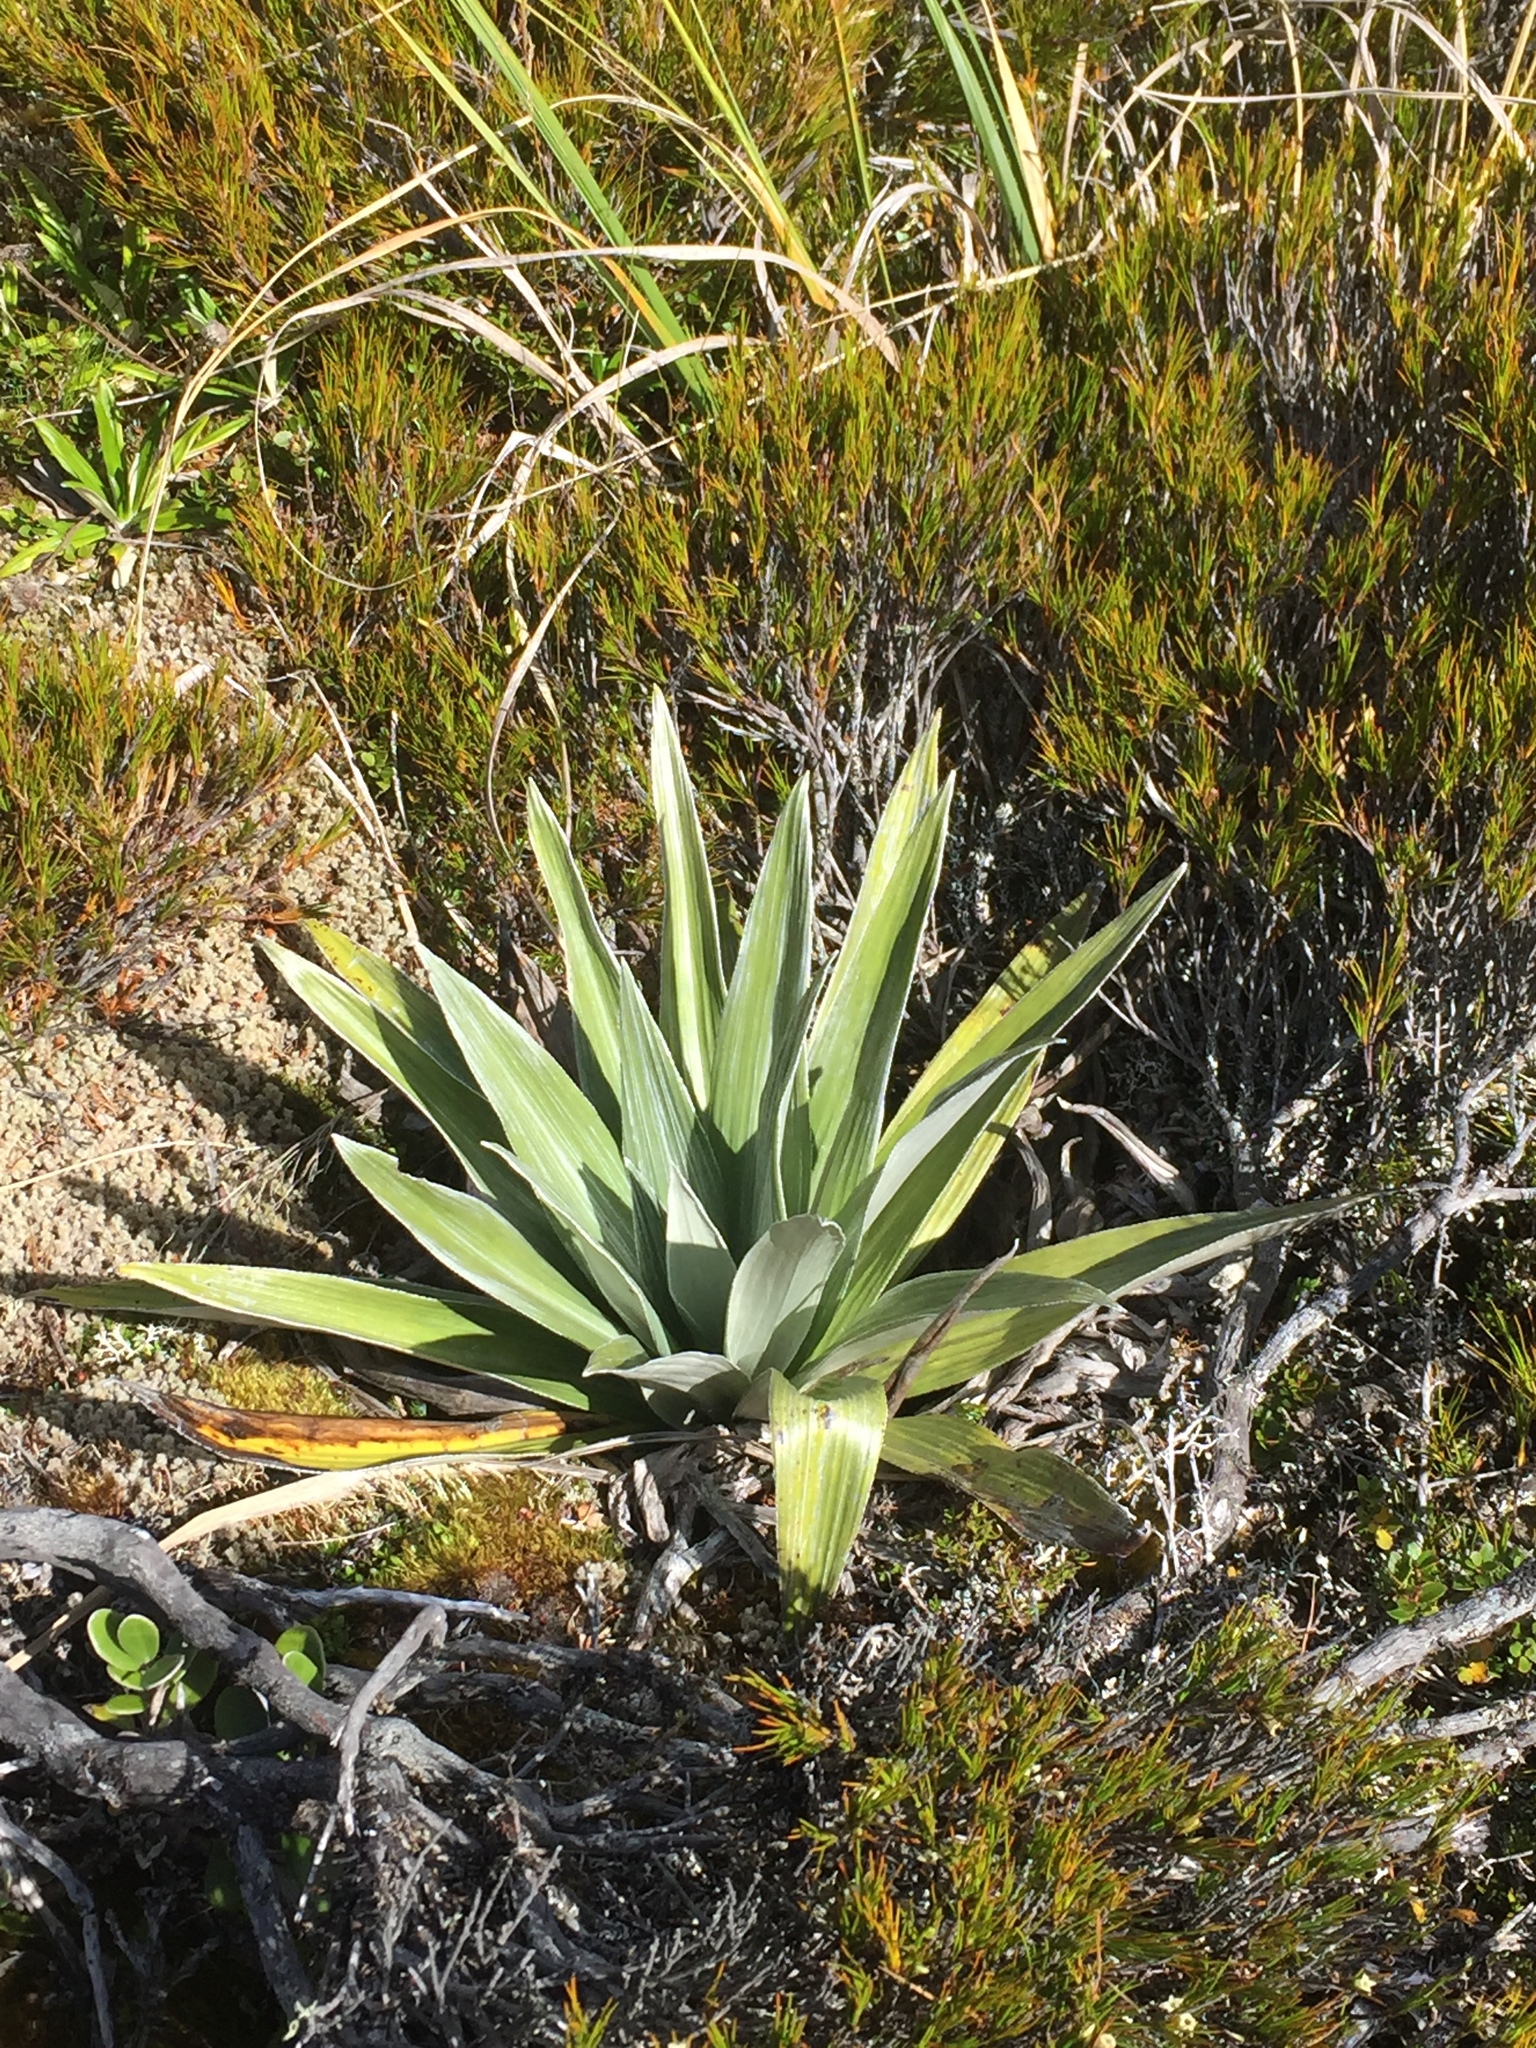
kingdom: Plantae
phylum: Tracheophyta
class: Magnoliopsida
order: Asterales
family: Asteraceae
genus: Celmisia
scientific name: Celmisia semicordata
